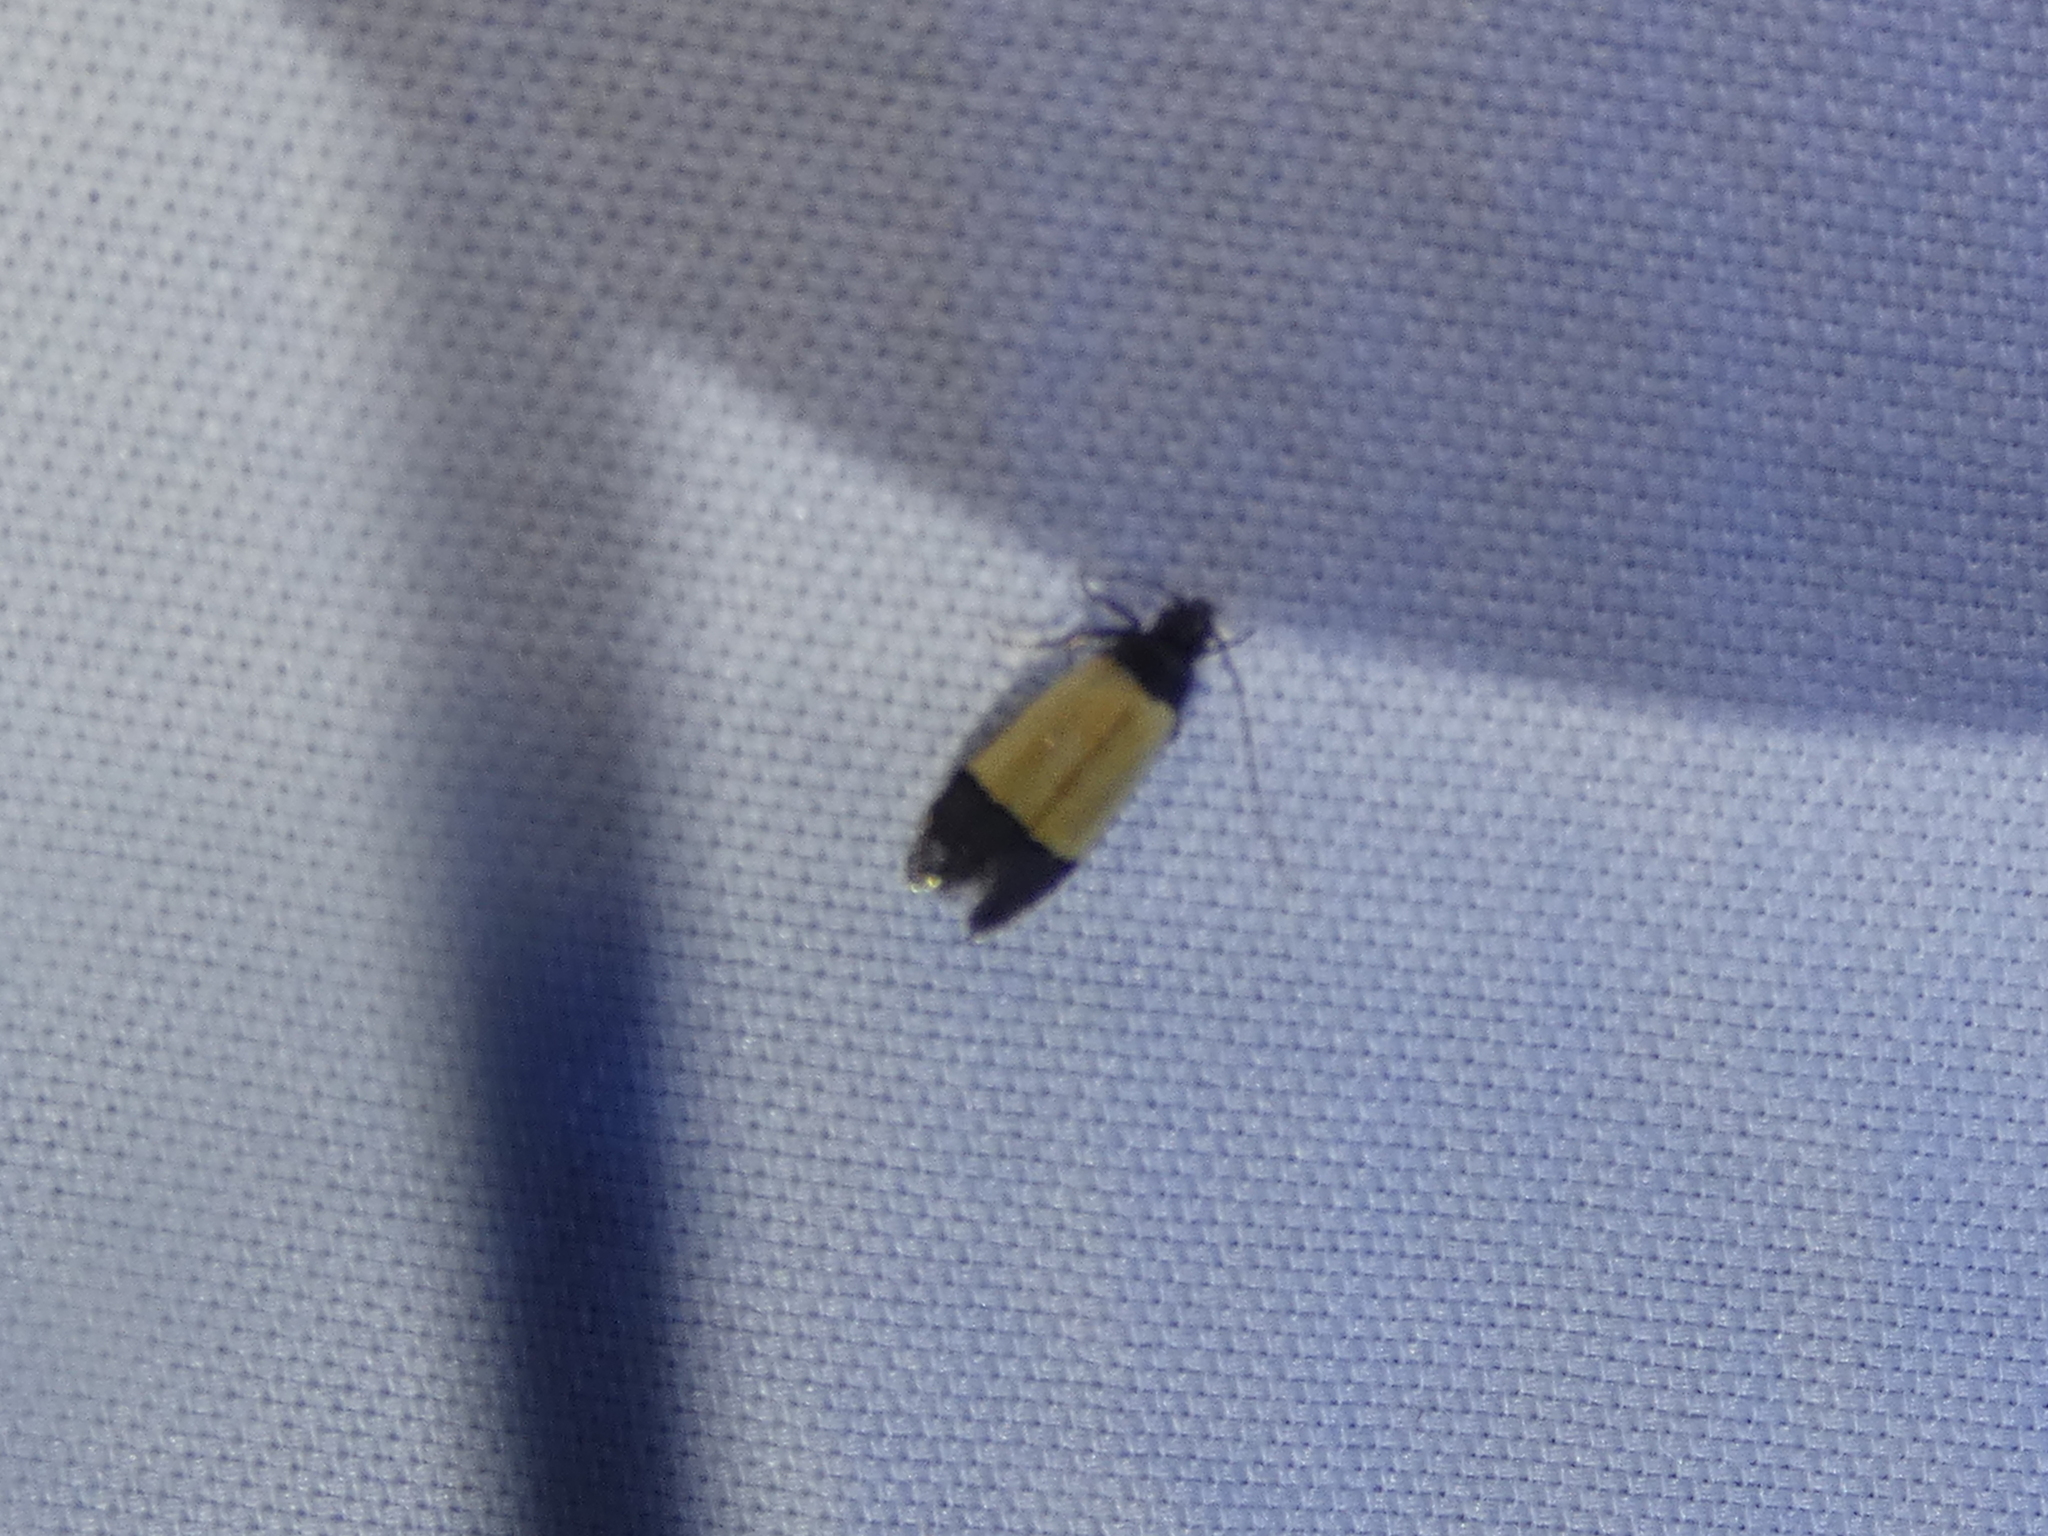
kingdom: Animalia
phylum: Arthropoda
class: Insecta
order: Lepidoptera
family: Gelechiidae
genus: Anacampsis
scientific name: Anacampsis coverdalella
